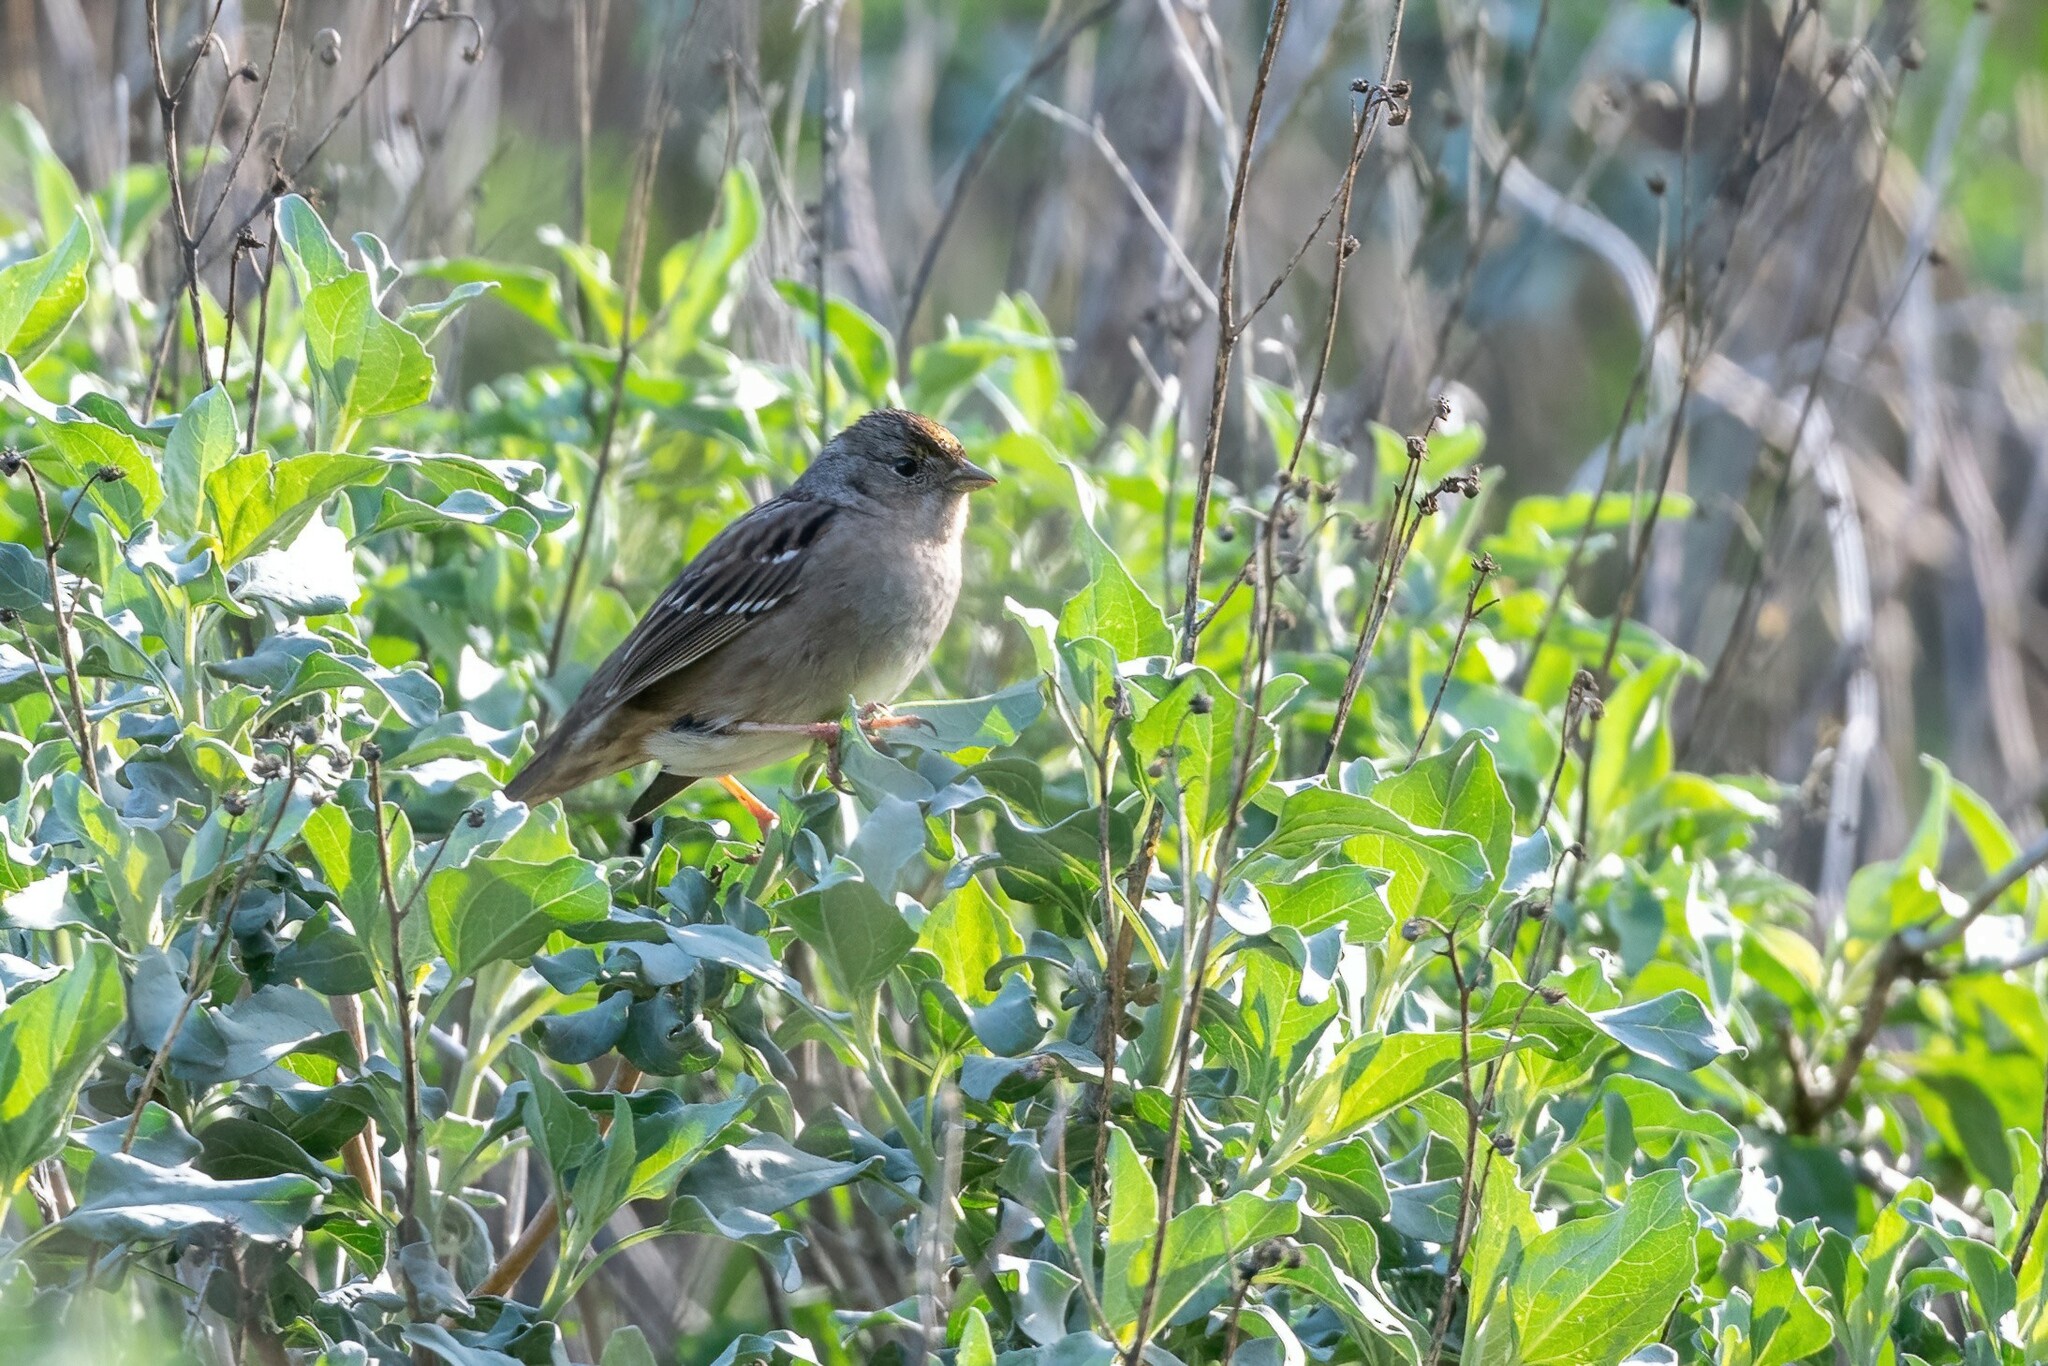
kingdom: Animalia
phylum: Chordata
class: Aves
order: Passeriformes
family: Passerellidae
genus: Zonotrichia
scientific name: Zonotrichia atricapilla
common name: Golden-crowned sparrow
